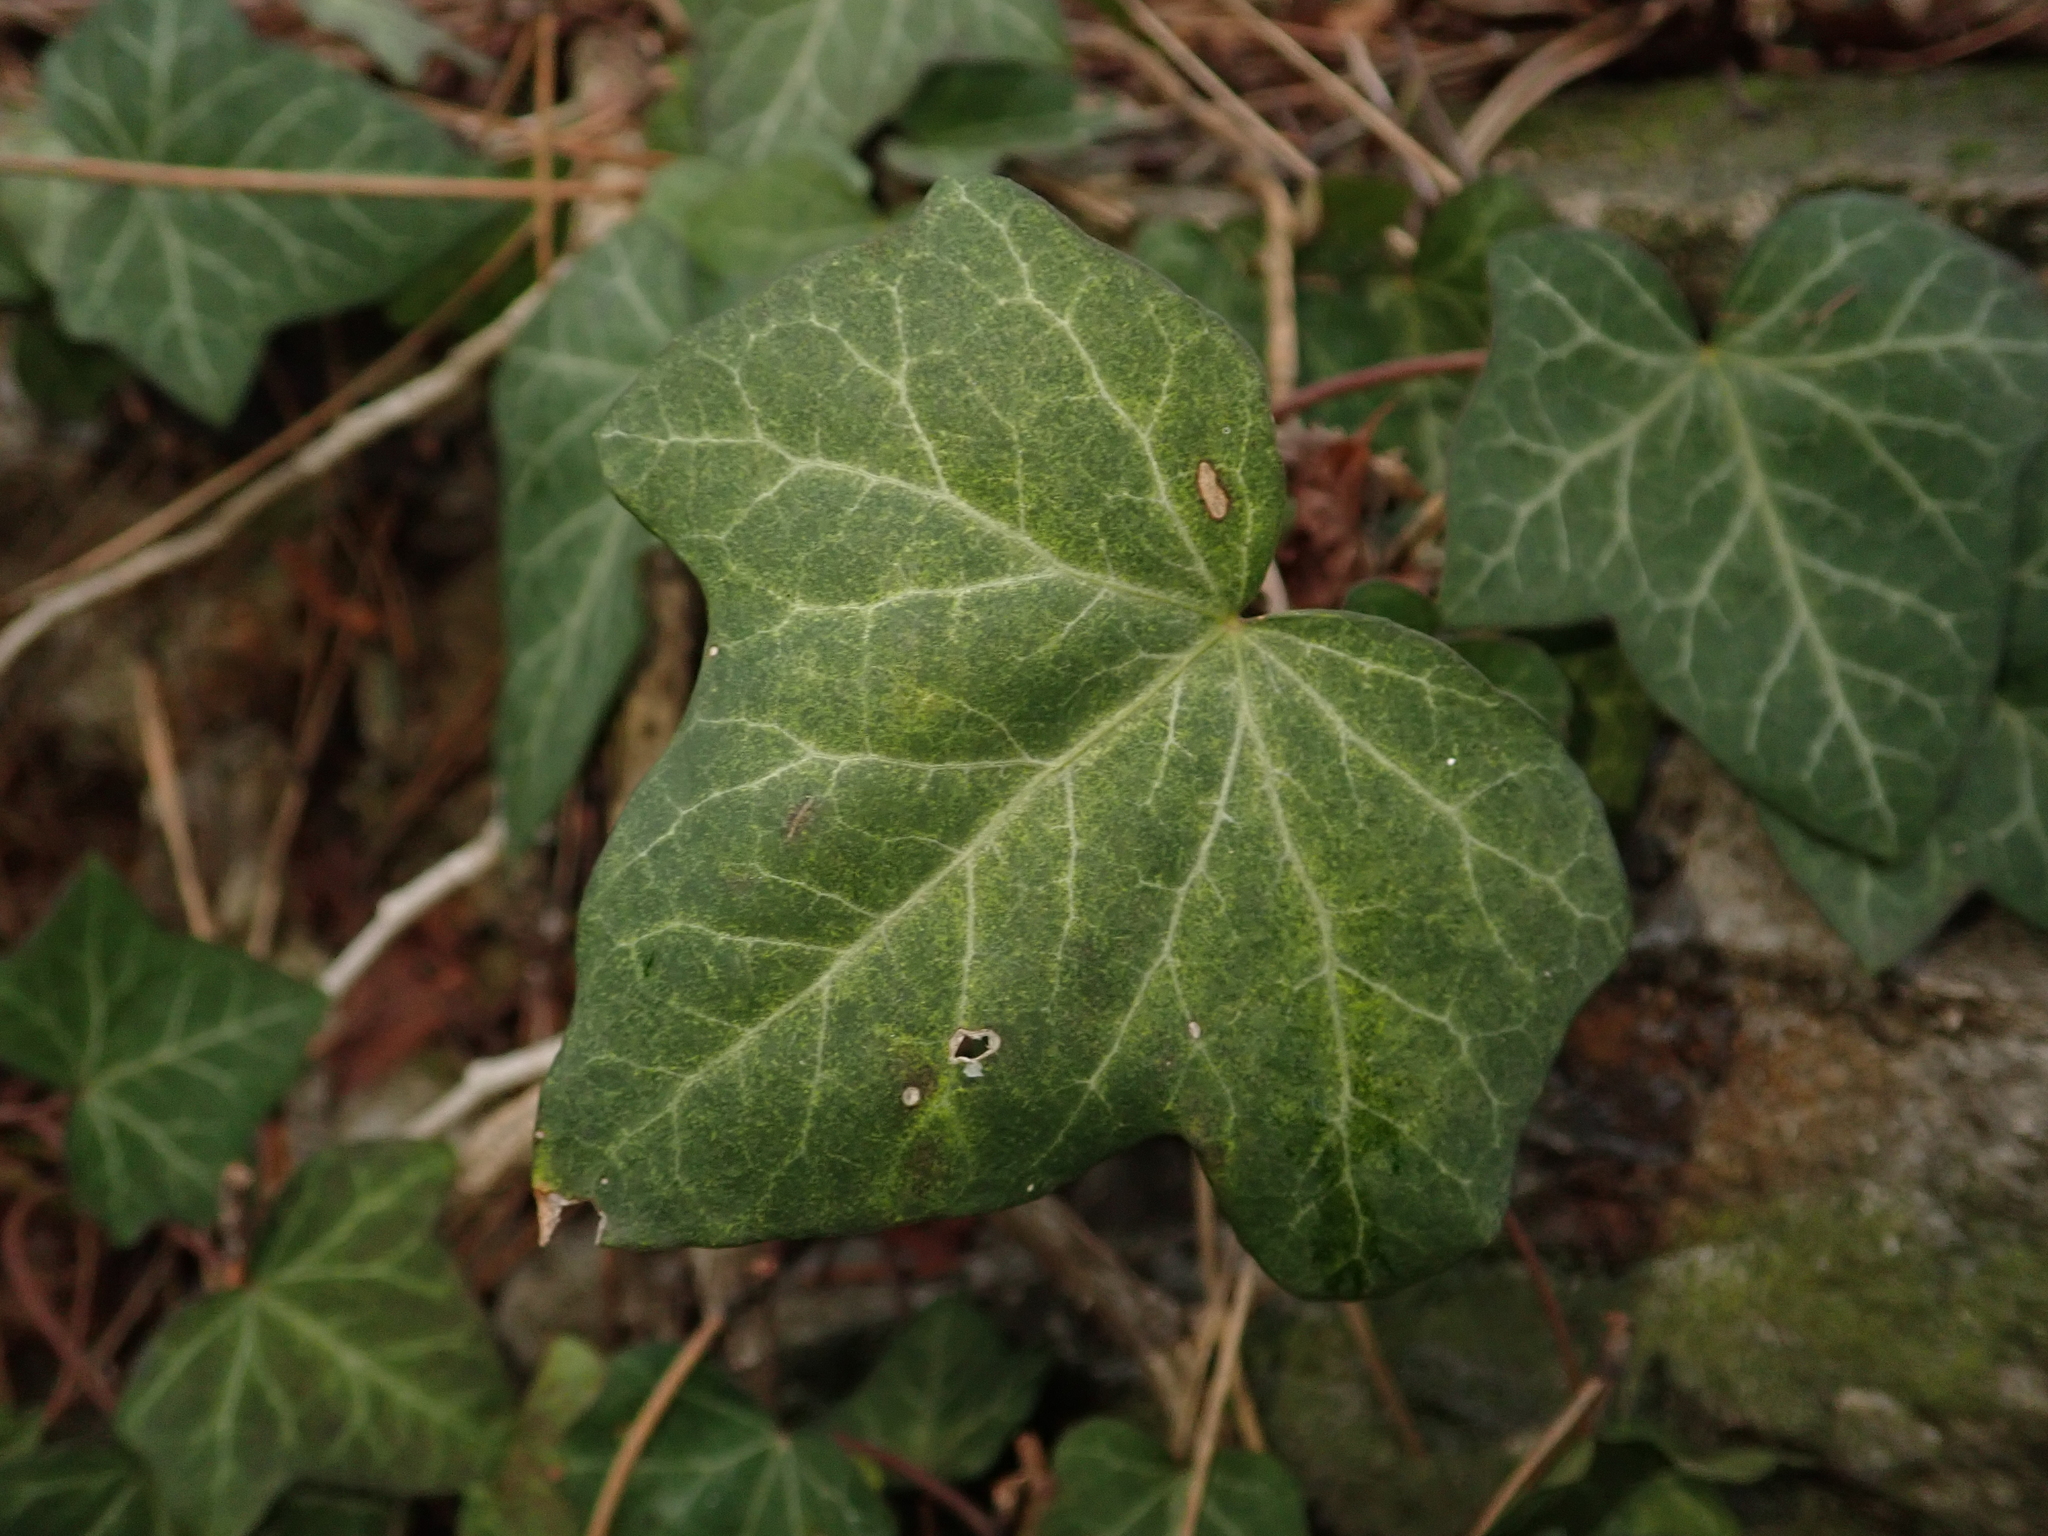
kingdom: Plantae
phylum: Tracheophyta
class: Magnoliopsida
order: Apiales
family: Araliaceae
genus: Hedera
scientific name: Hedera helix
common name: Ivy
